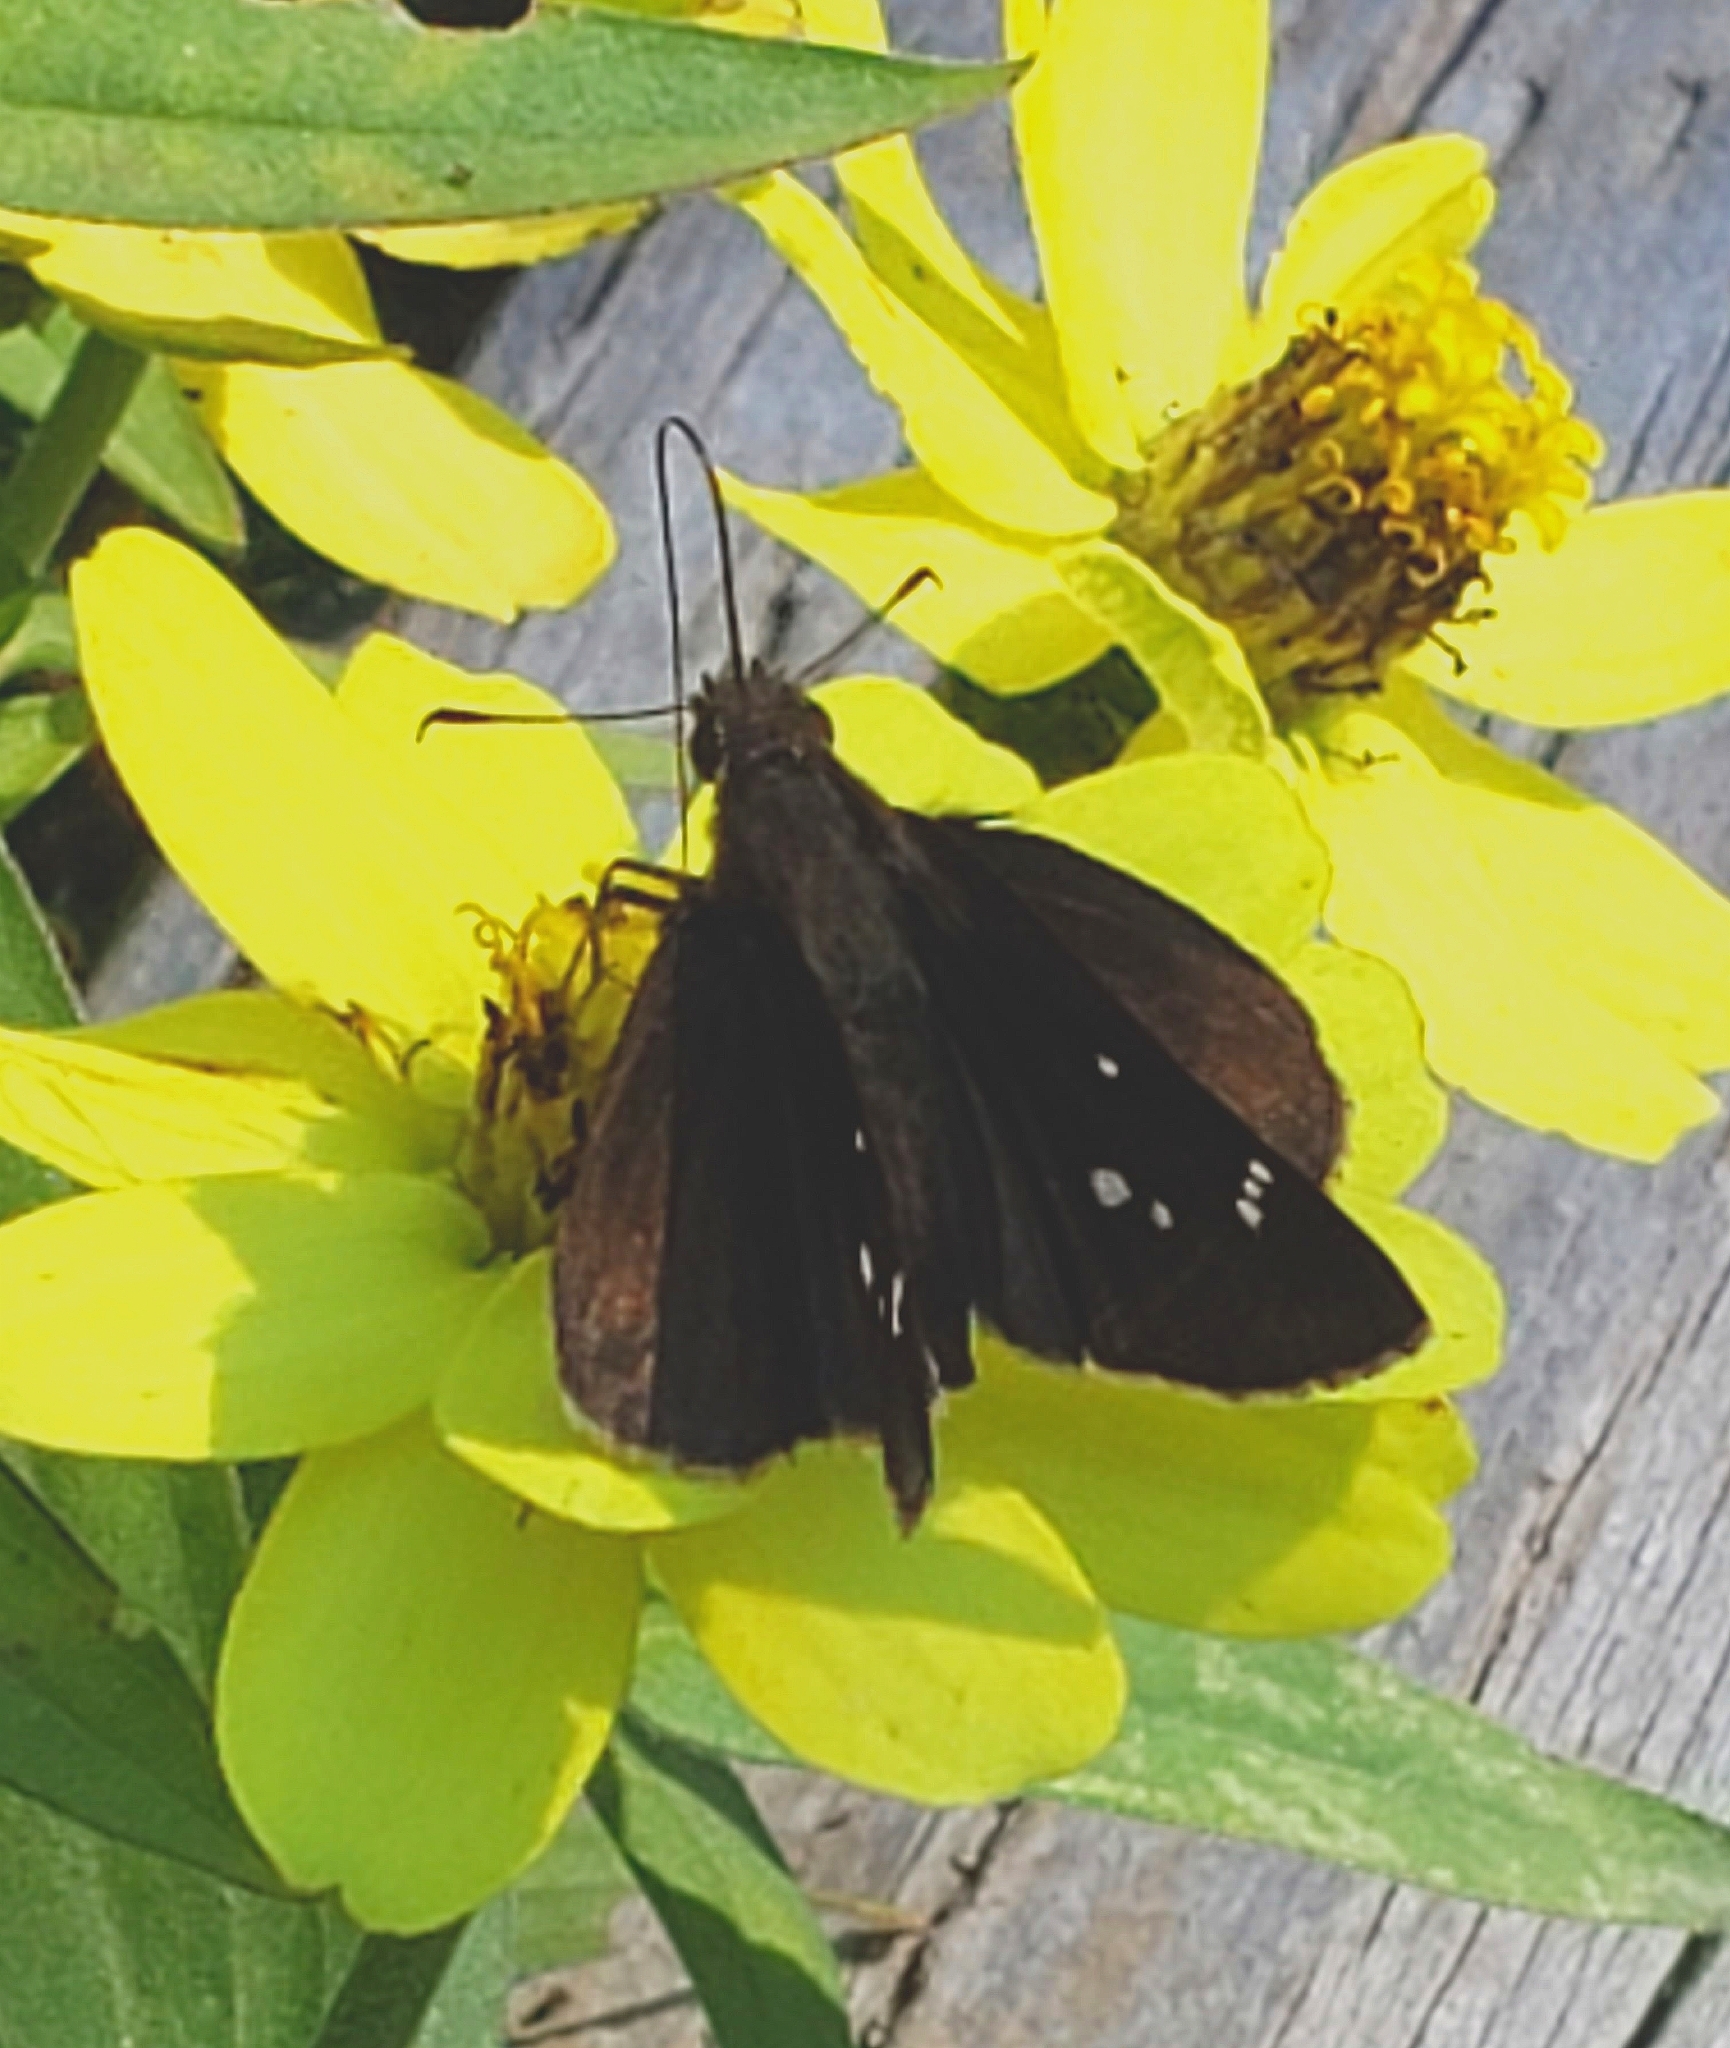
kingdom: Animalia
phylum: Arthropoda
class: Insecta
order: Lepidoptera
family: Hesperiidae
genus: Lerema
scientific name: Lerema accius
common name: Clouded skipper
